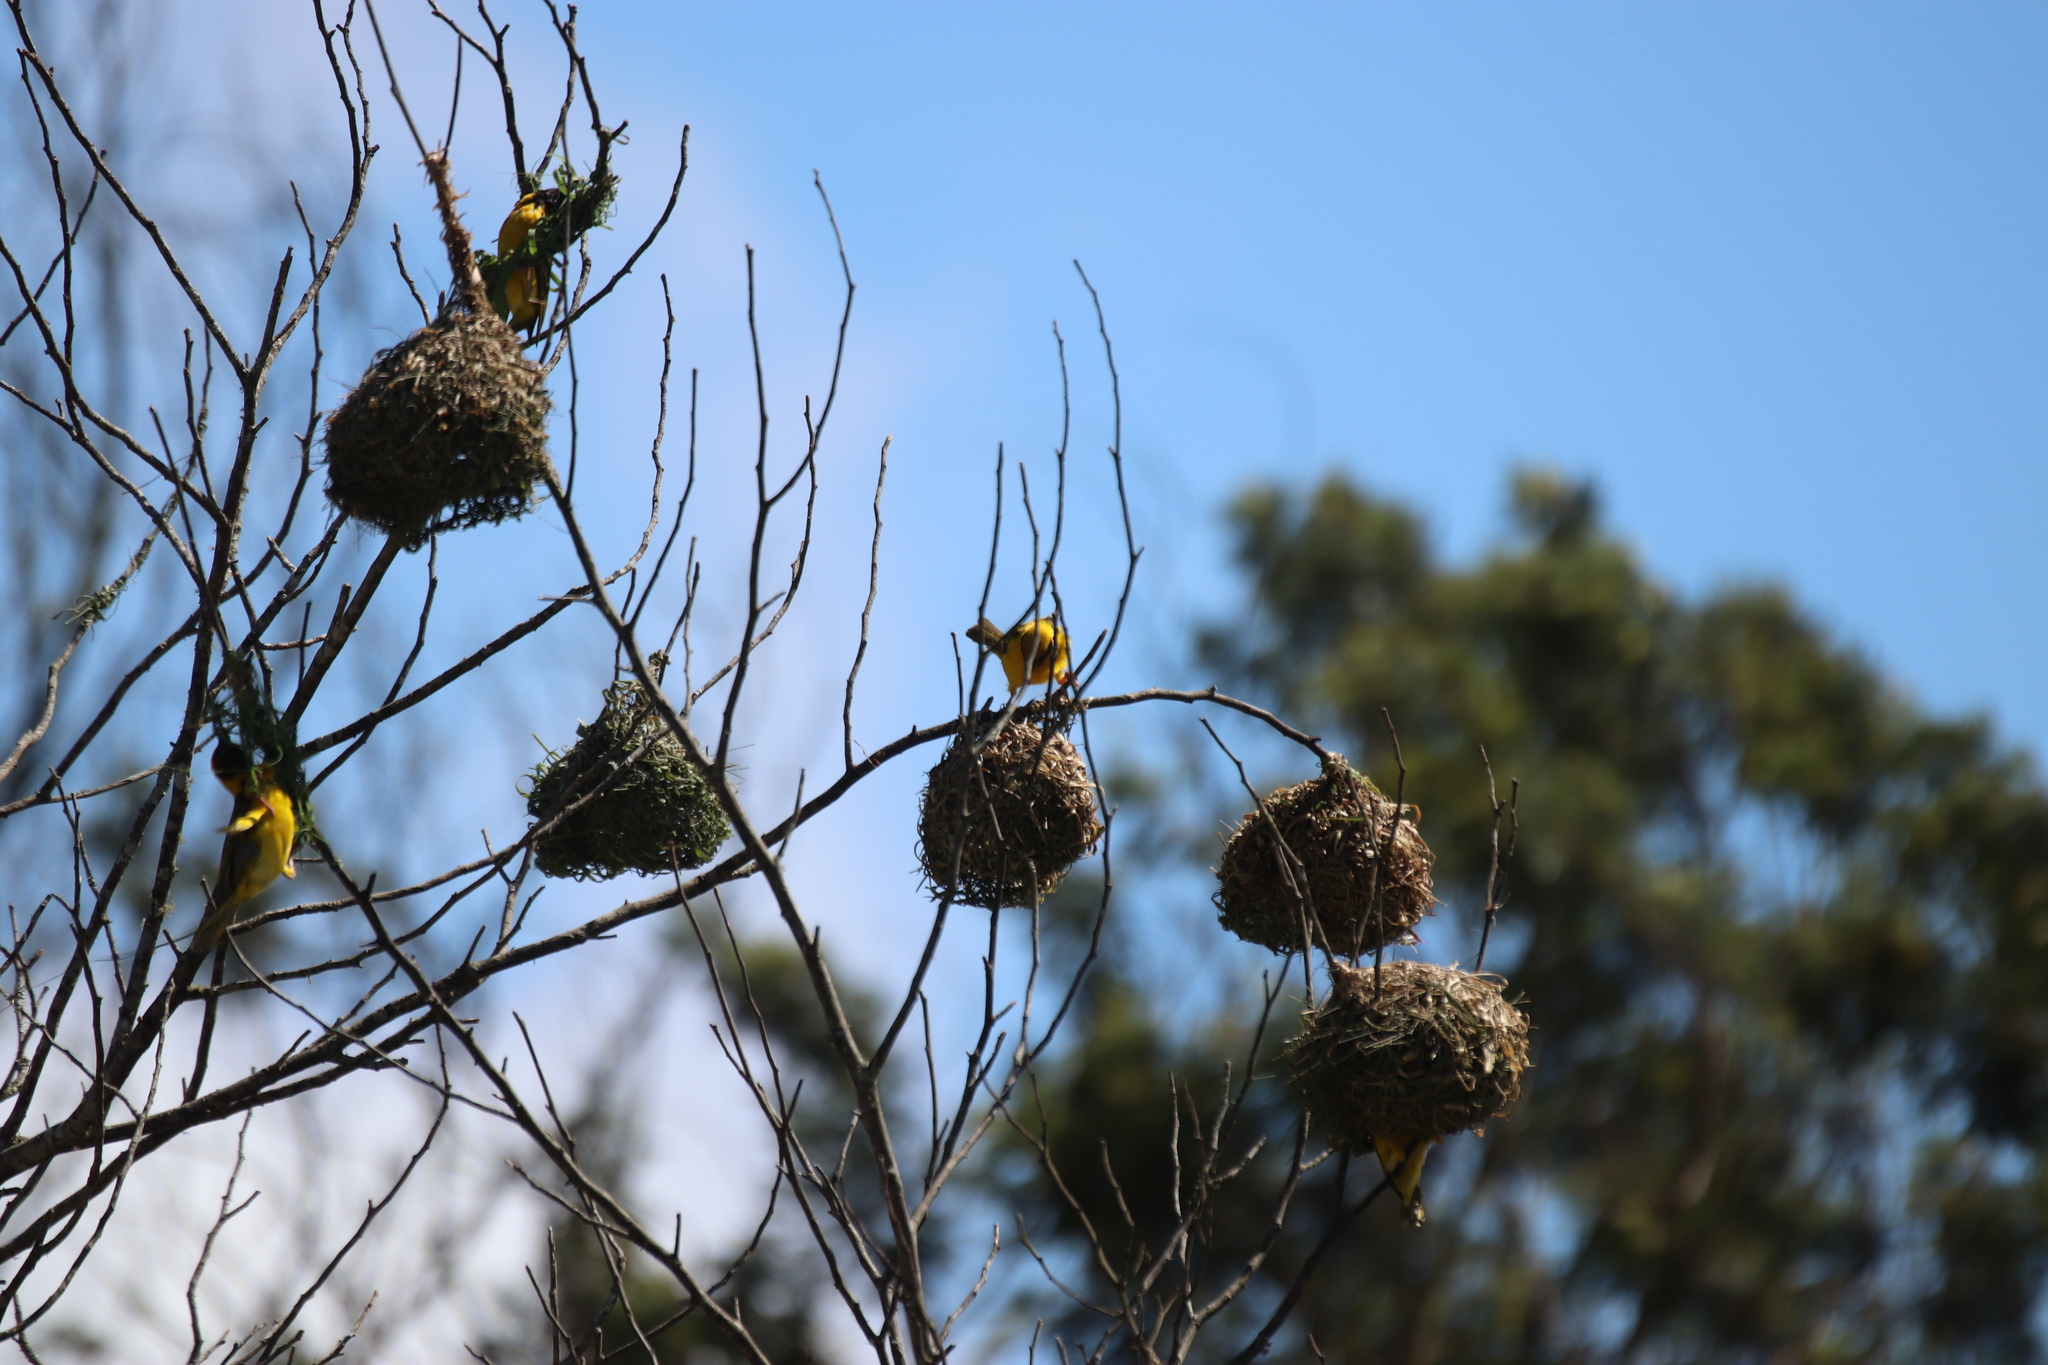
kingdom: Animalia
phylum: Chordata
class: Aves
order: Passeriformes
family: Ploceidae
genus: Ploceus
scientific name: Ploceus cucullatus
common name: Village weaver
